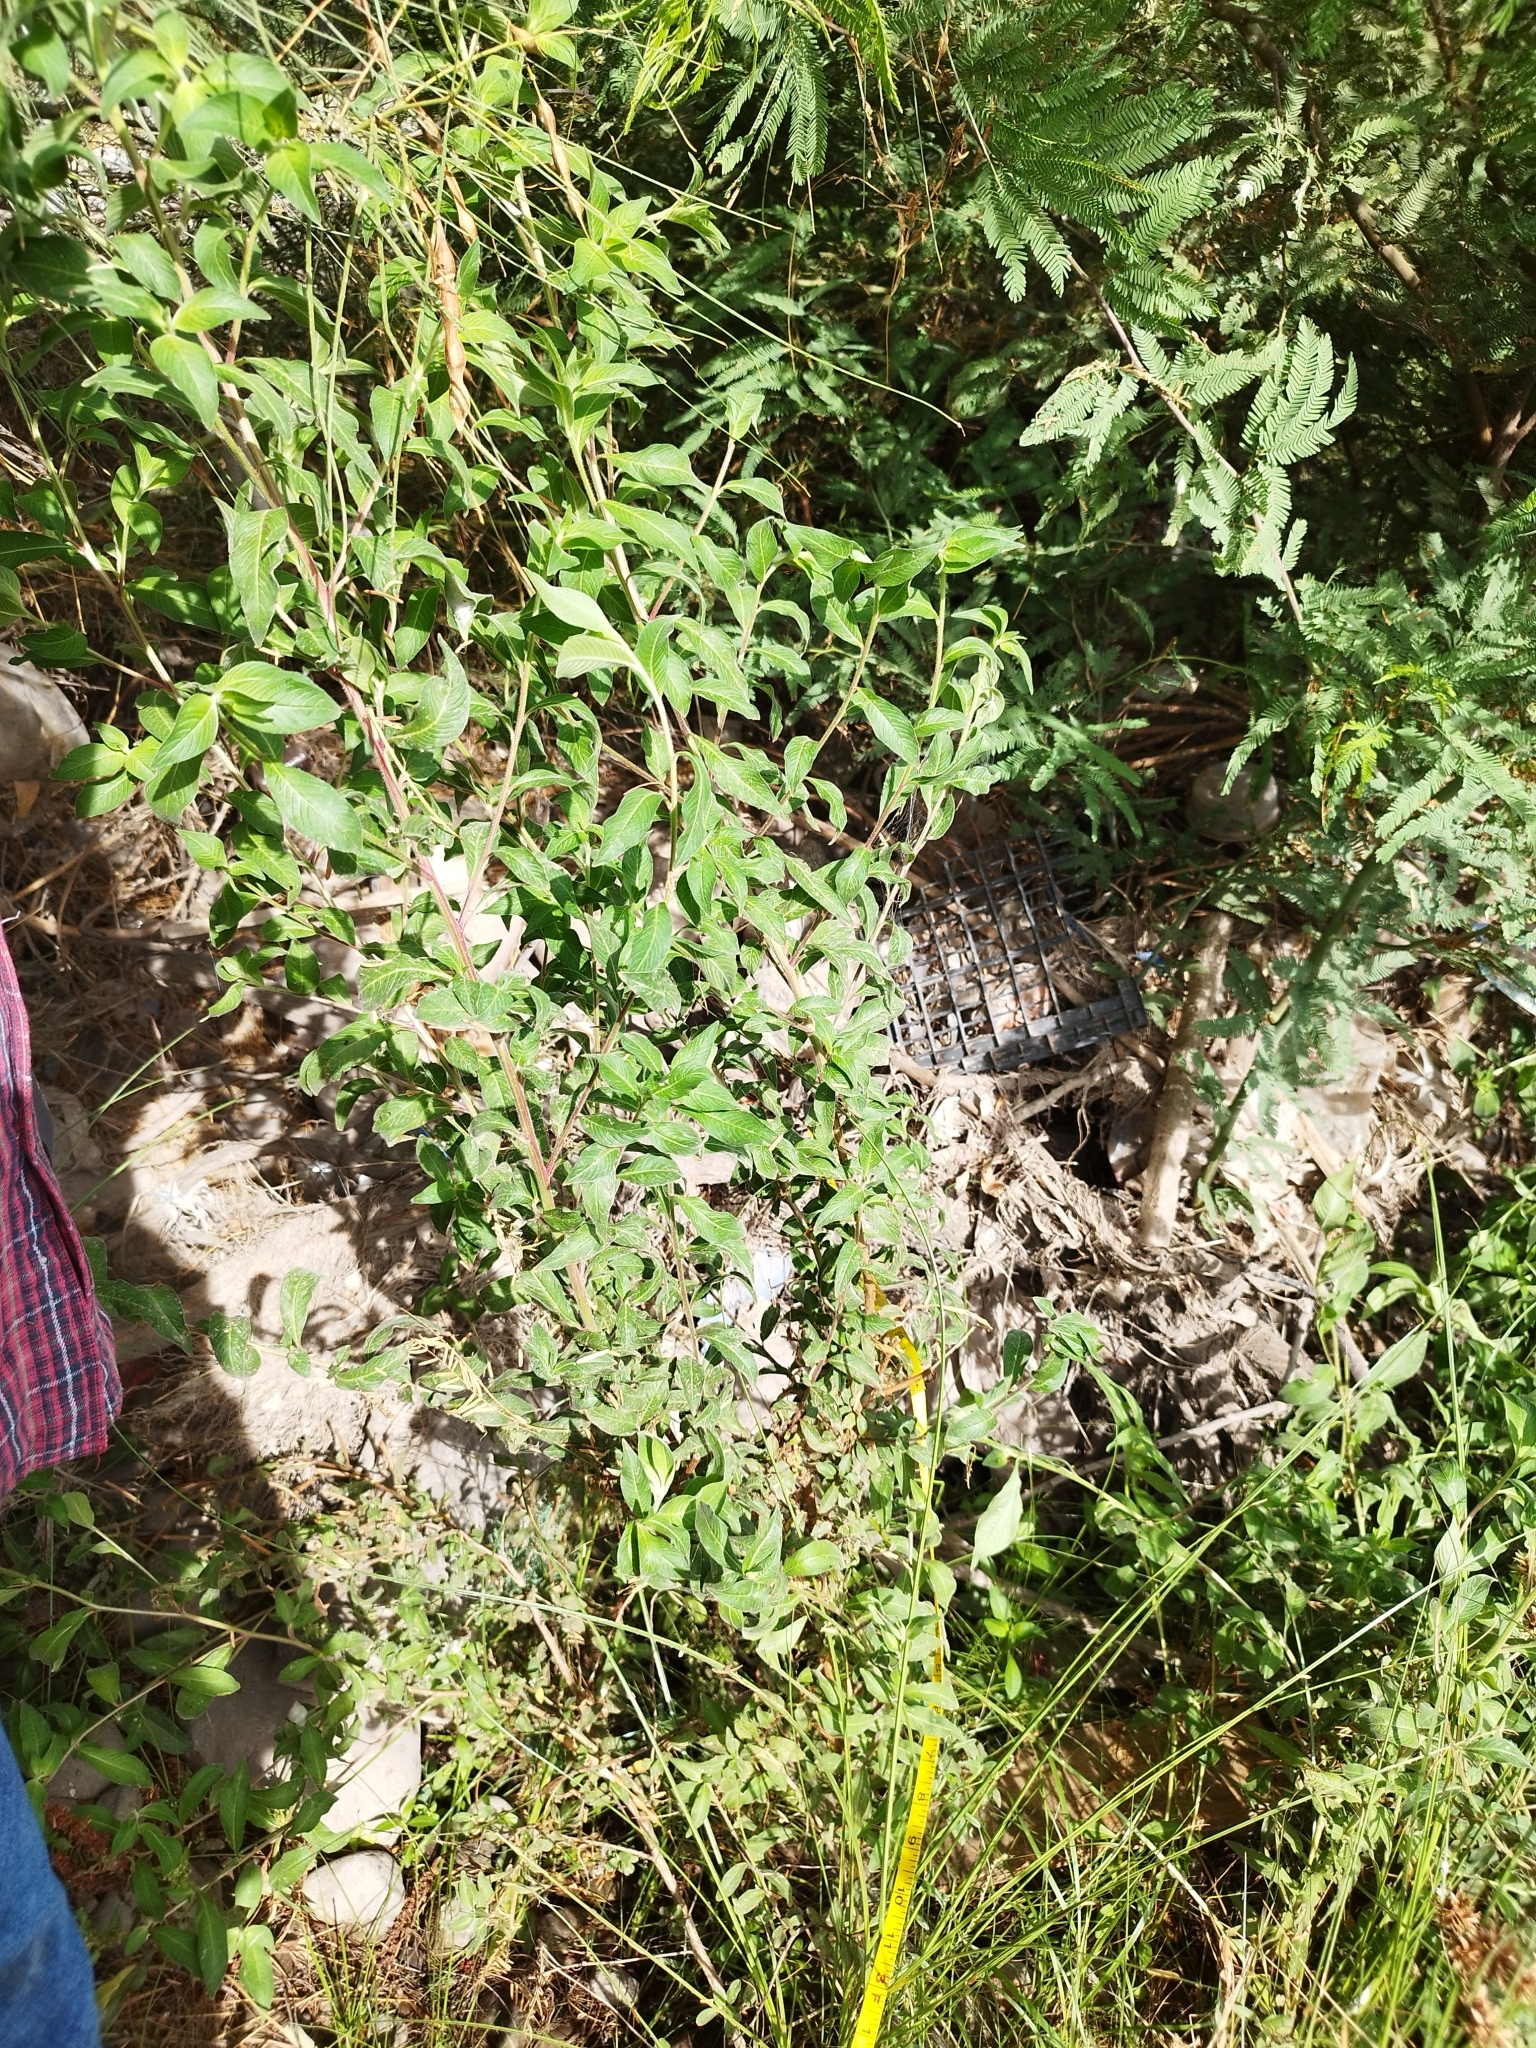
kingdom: Plantae
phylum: Tracheophyta
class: Magnoliopsida
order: Myrtales
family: Onagraceae
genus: Ludwigia
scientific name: Ludwigia octovalvis
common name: Water-primrose
